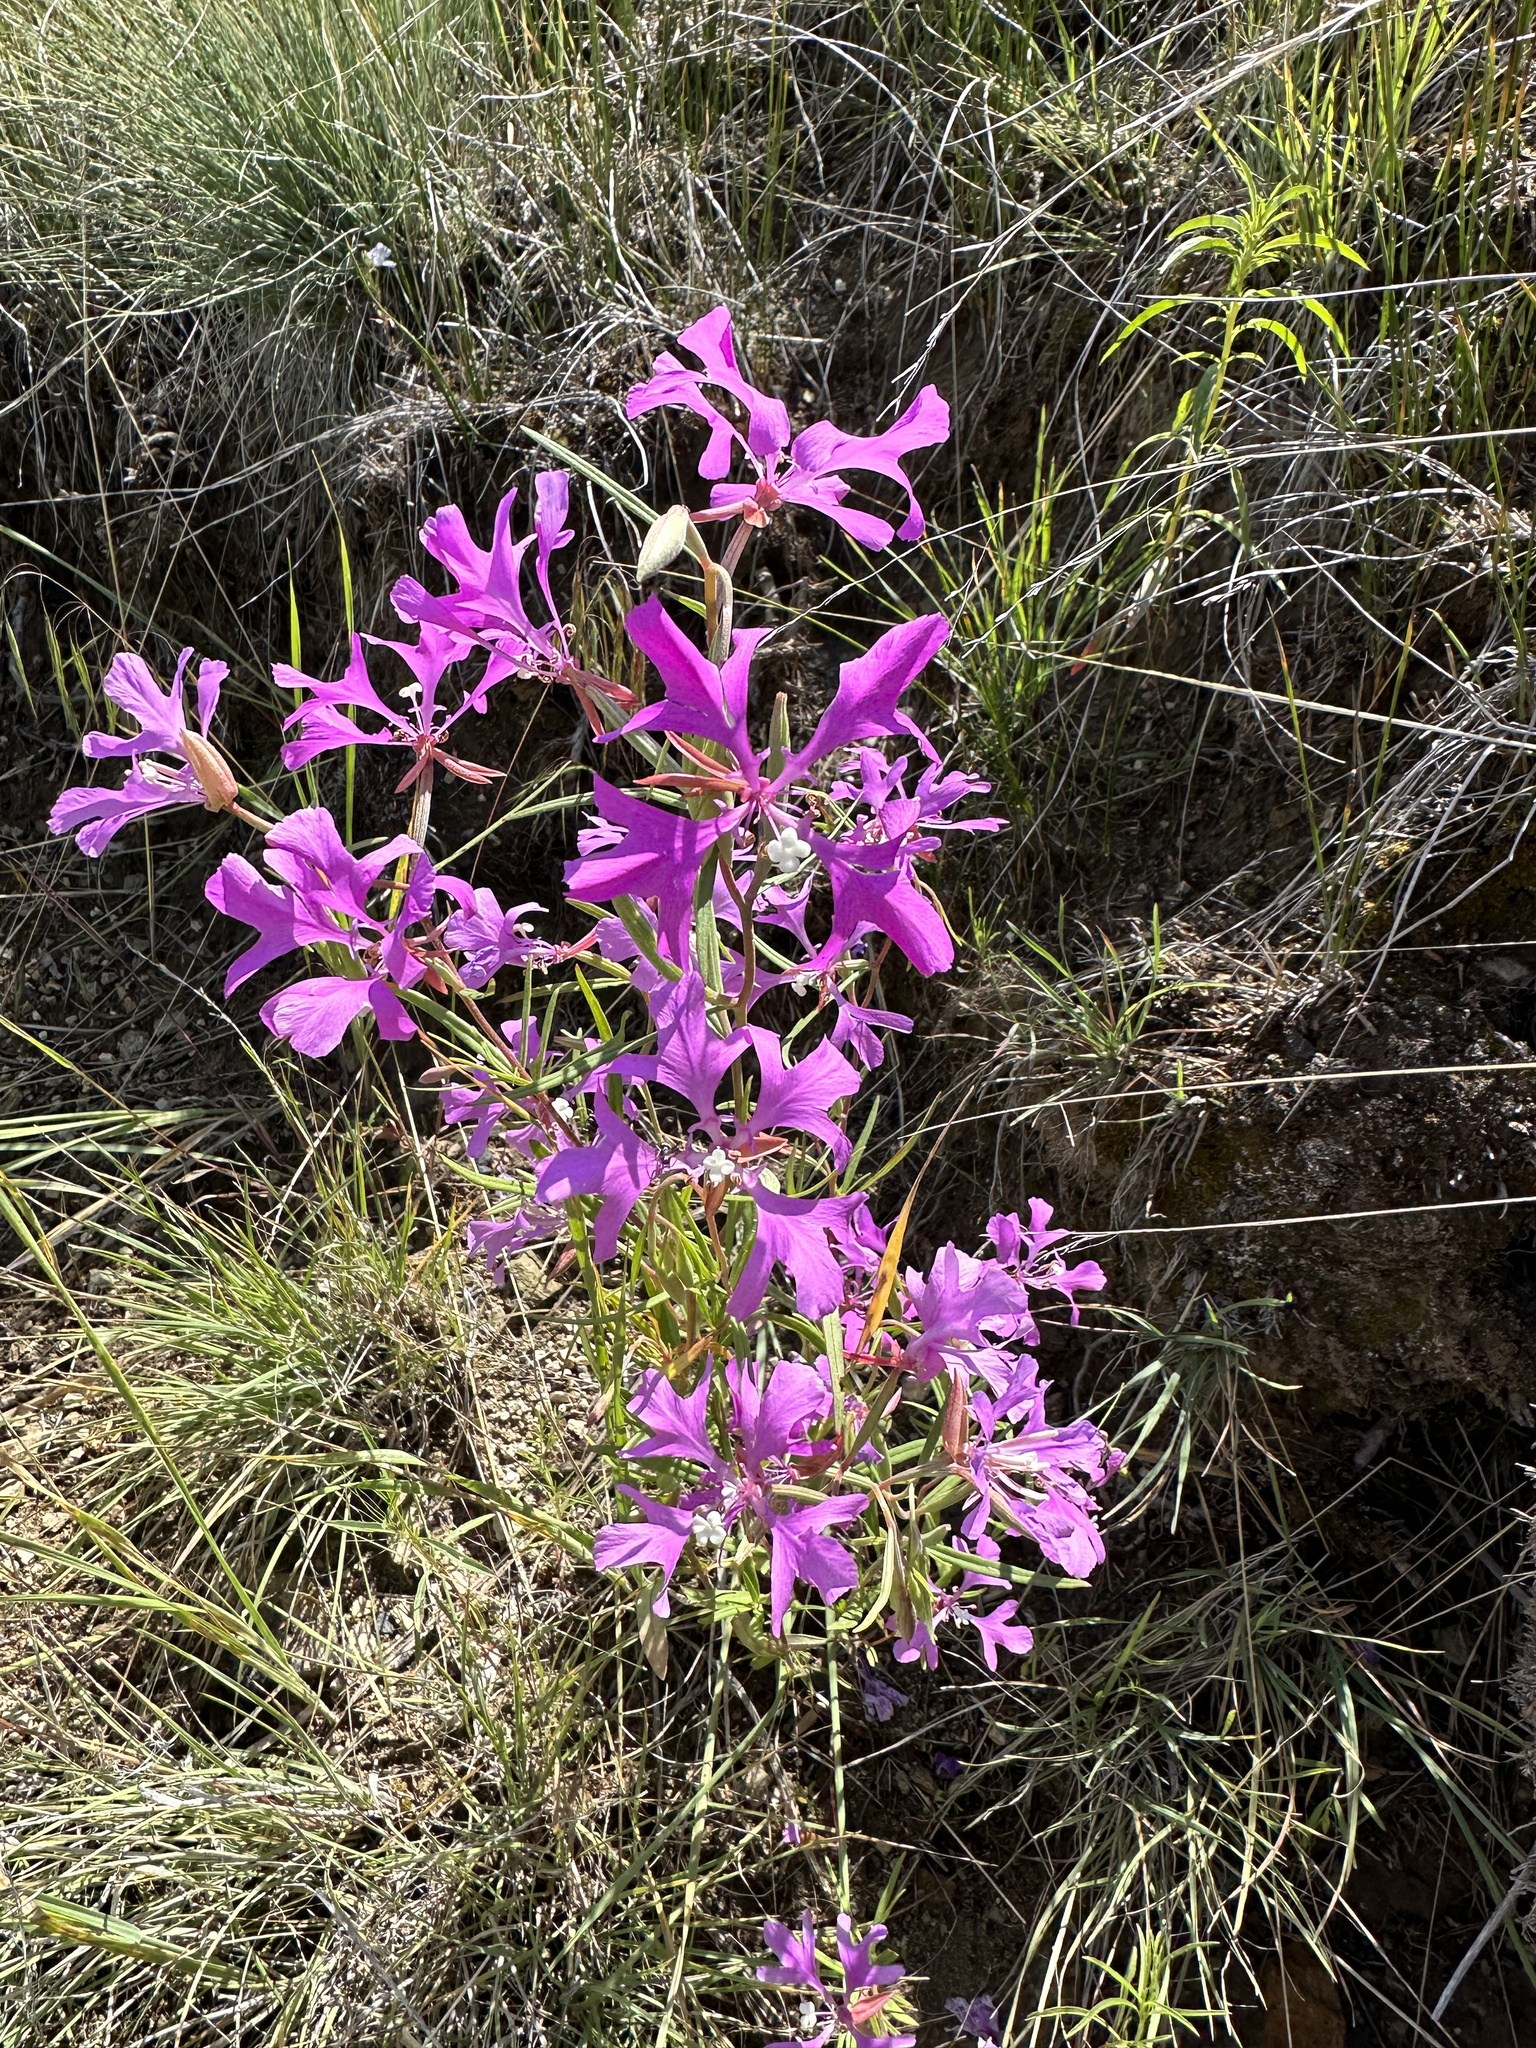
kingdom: Plantae
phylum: Tracheophyta
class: Magnoliopsida
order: Myrtales
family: Onagraceae
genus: Clarkia
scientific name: Clarkia pulchella
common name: Deer horn
